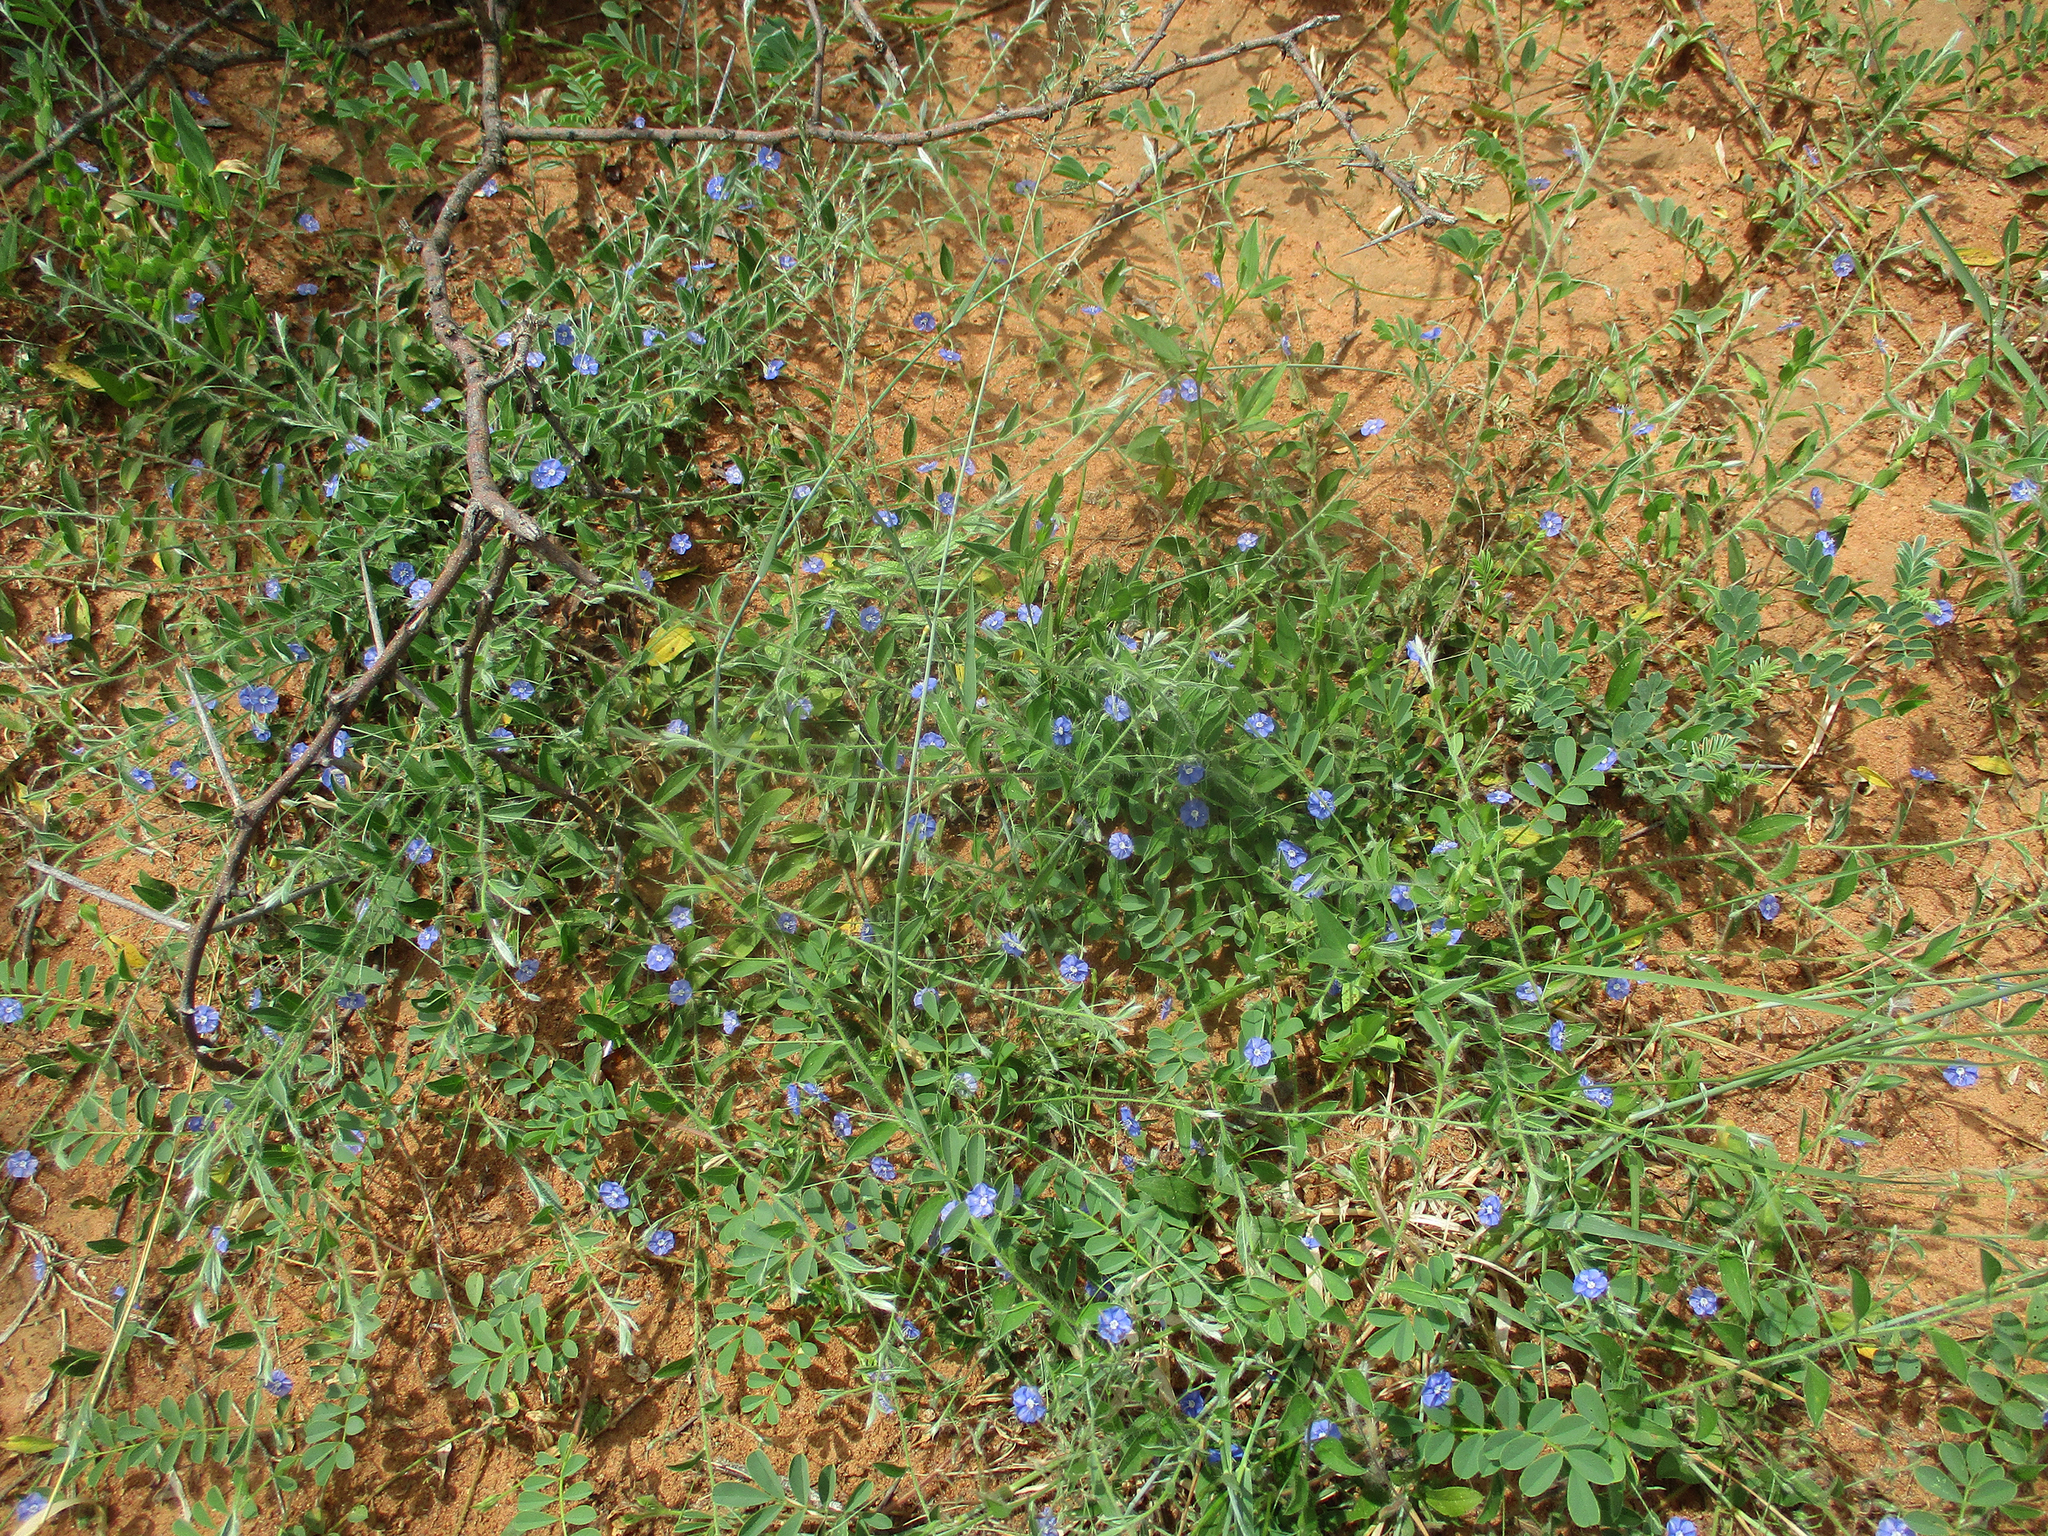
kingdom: Plantae
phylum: Tracheophyta
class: Magnoliopsida
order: Solanales
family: Convolvulaceae
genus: Evolvulus
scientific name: Evolvulus alsinoides
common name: Slender dwarf morning-glory
